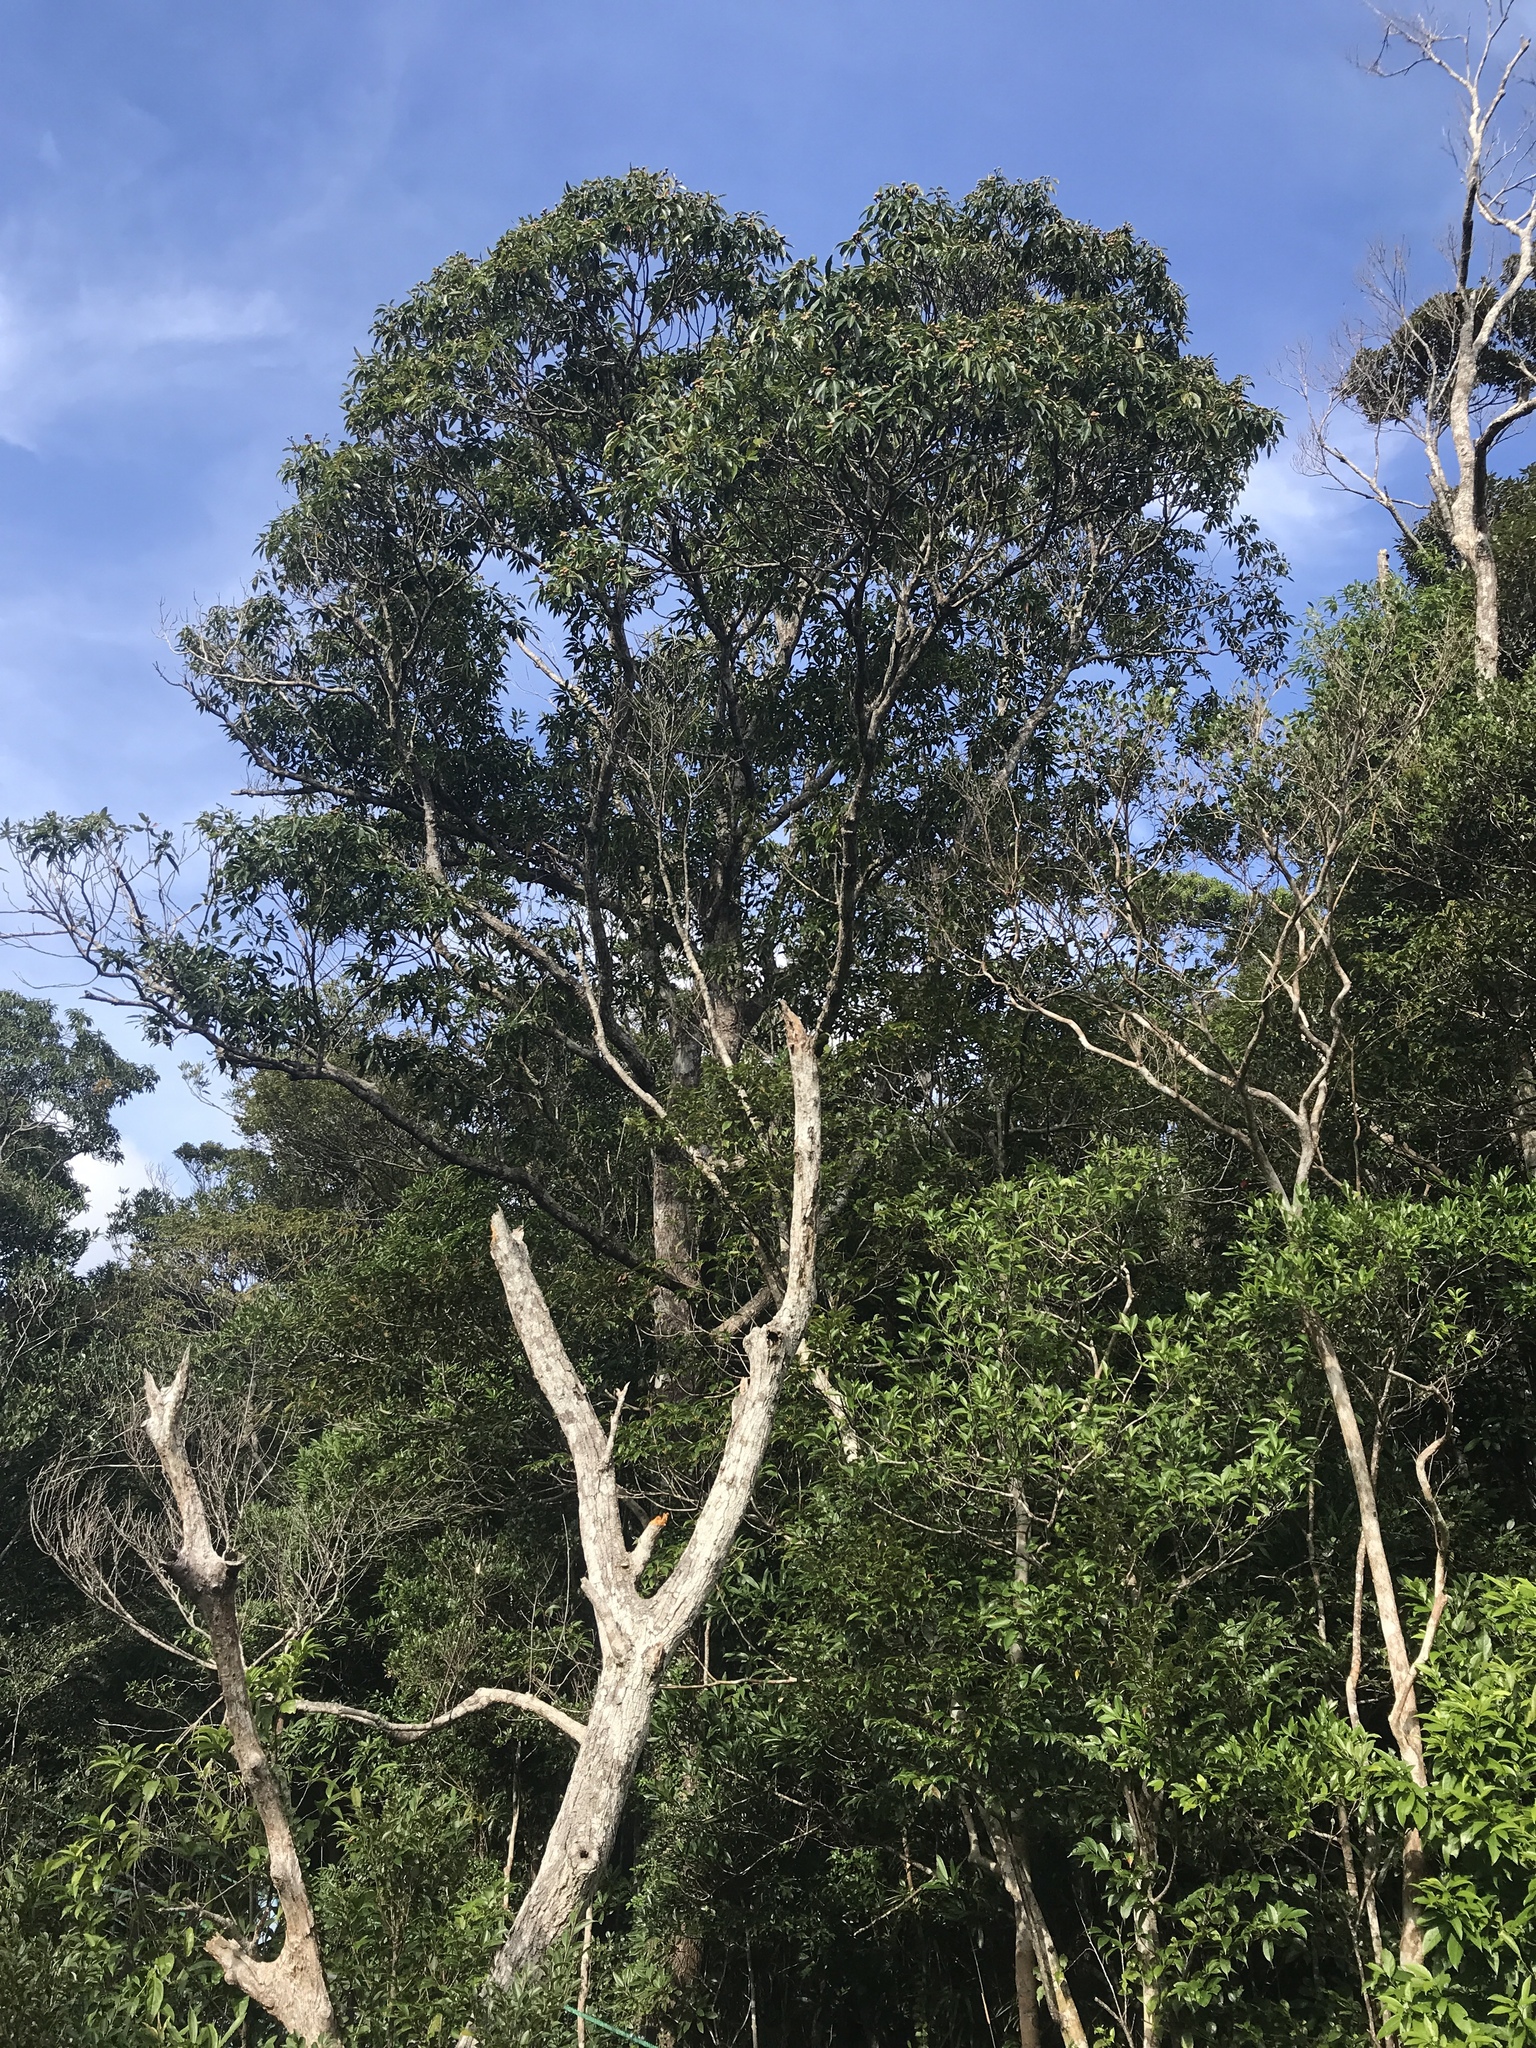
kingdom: Plantae
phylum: Tracheophyta
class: Magnoliopsida
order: Ericales
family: Theaceae
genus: Schima
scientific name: Schima wallichii
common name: Schima
